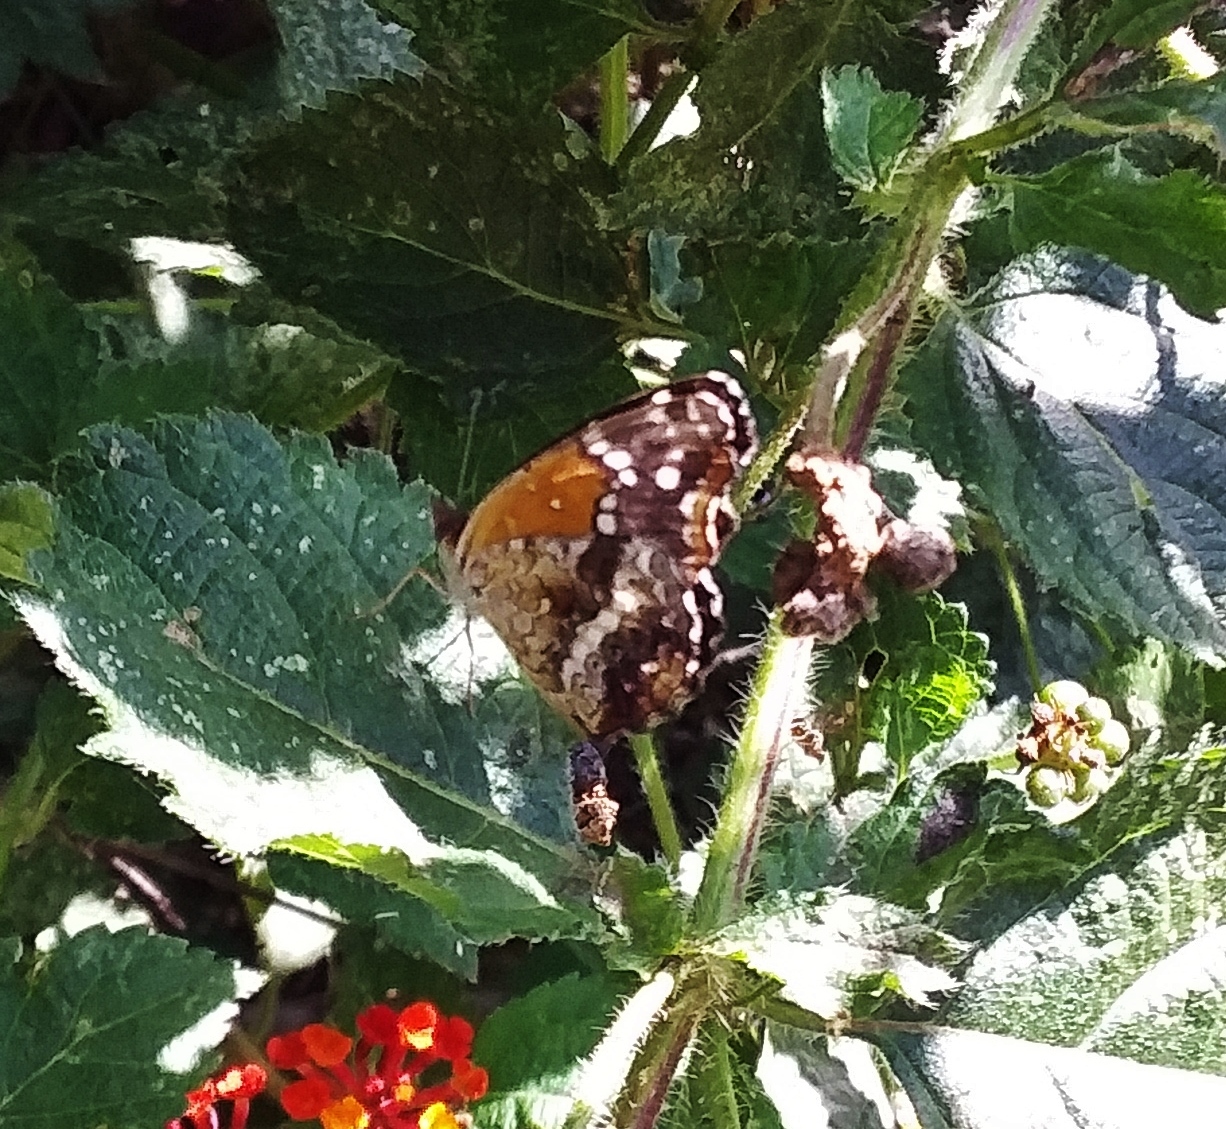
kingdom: Animalia
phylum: Arthropoda
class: Insecta
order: Lepidoptera
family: Nymphalidae
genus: Anthanassa
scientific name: Anthanassa texana
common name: Texan crescent
